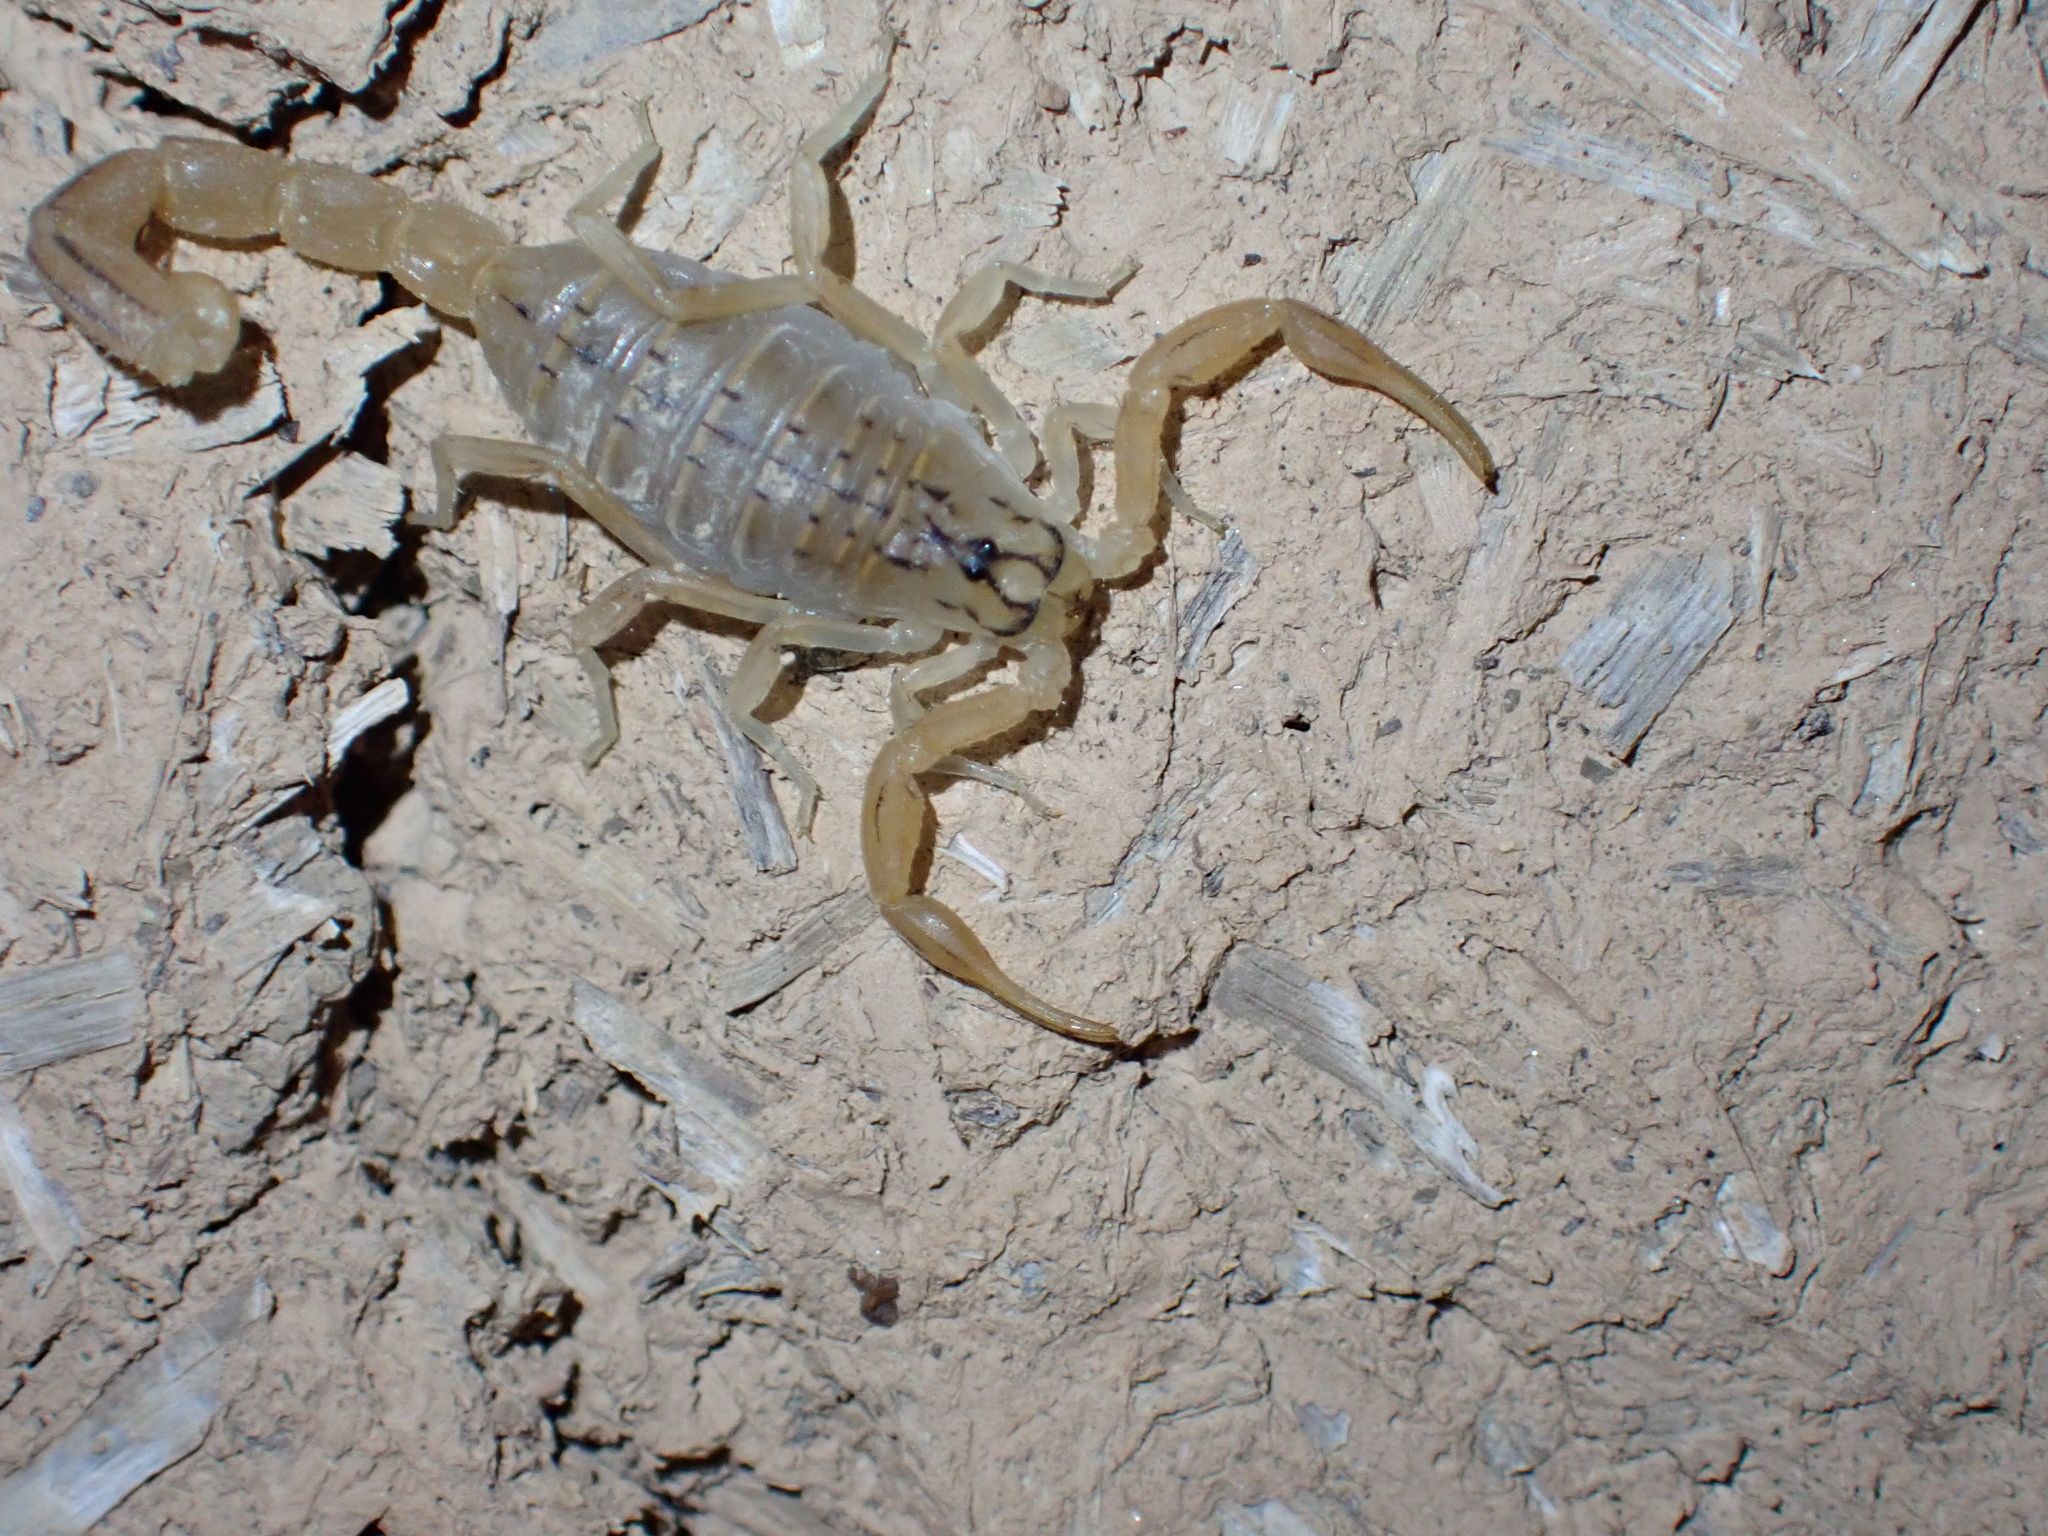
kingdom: Animalia
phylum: Arthropoda
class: Arachnida
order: Scorpiones
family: Buthidae
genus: Mesobuthus
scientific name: Mesobuthus crucittii
